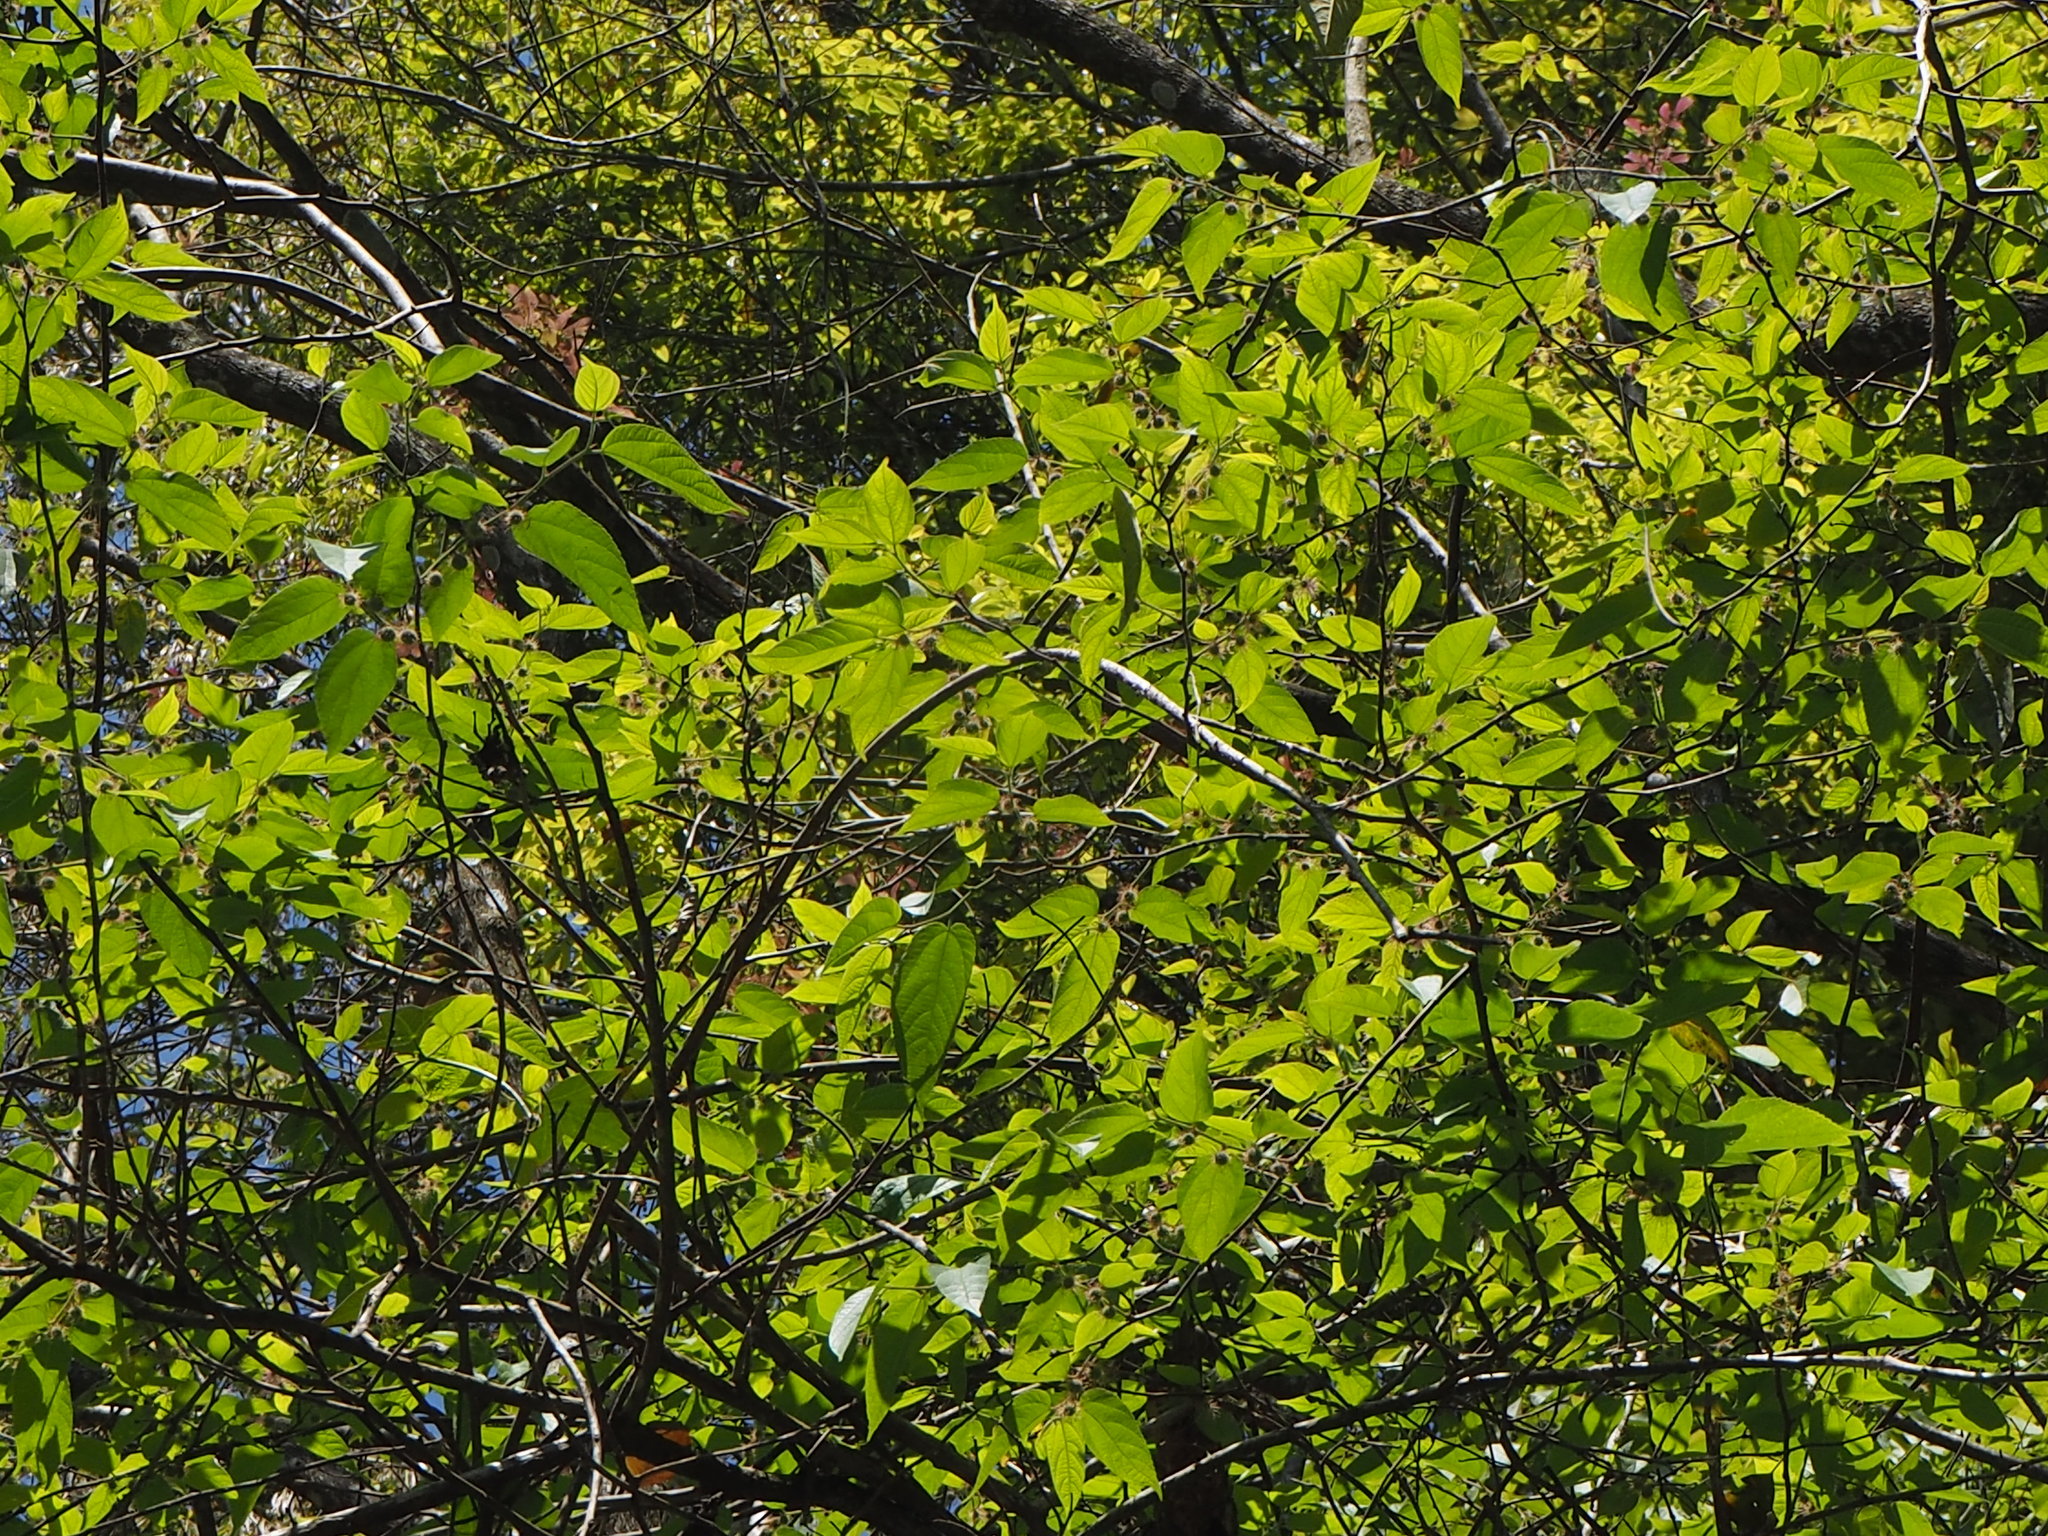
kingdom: Plantae
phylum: Tracheophyta
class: Magnoliopsida
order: Rosales
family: Moraceae
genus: Broussonetia
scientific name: Broussonetia monoica
